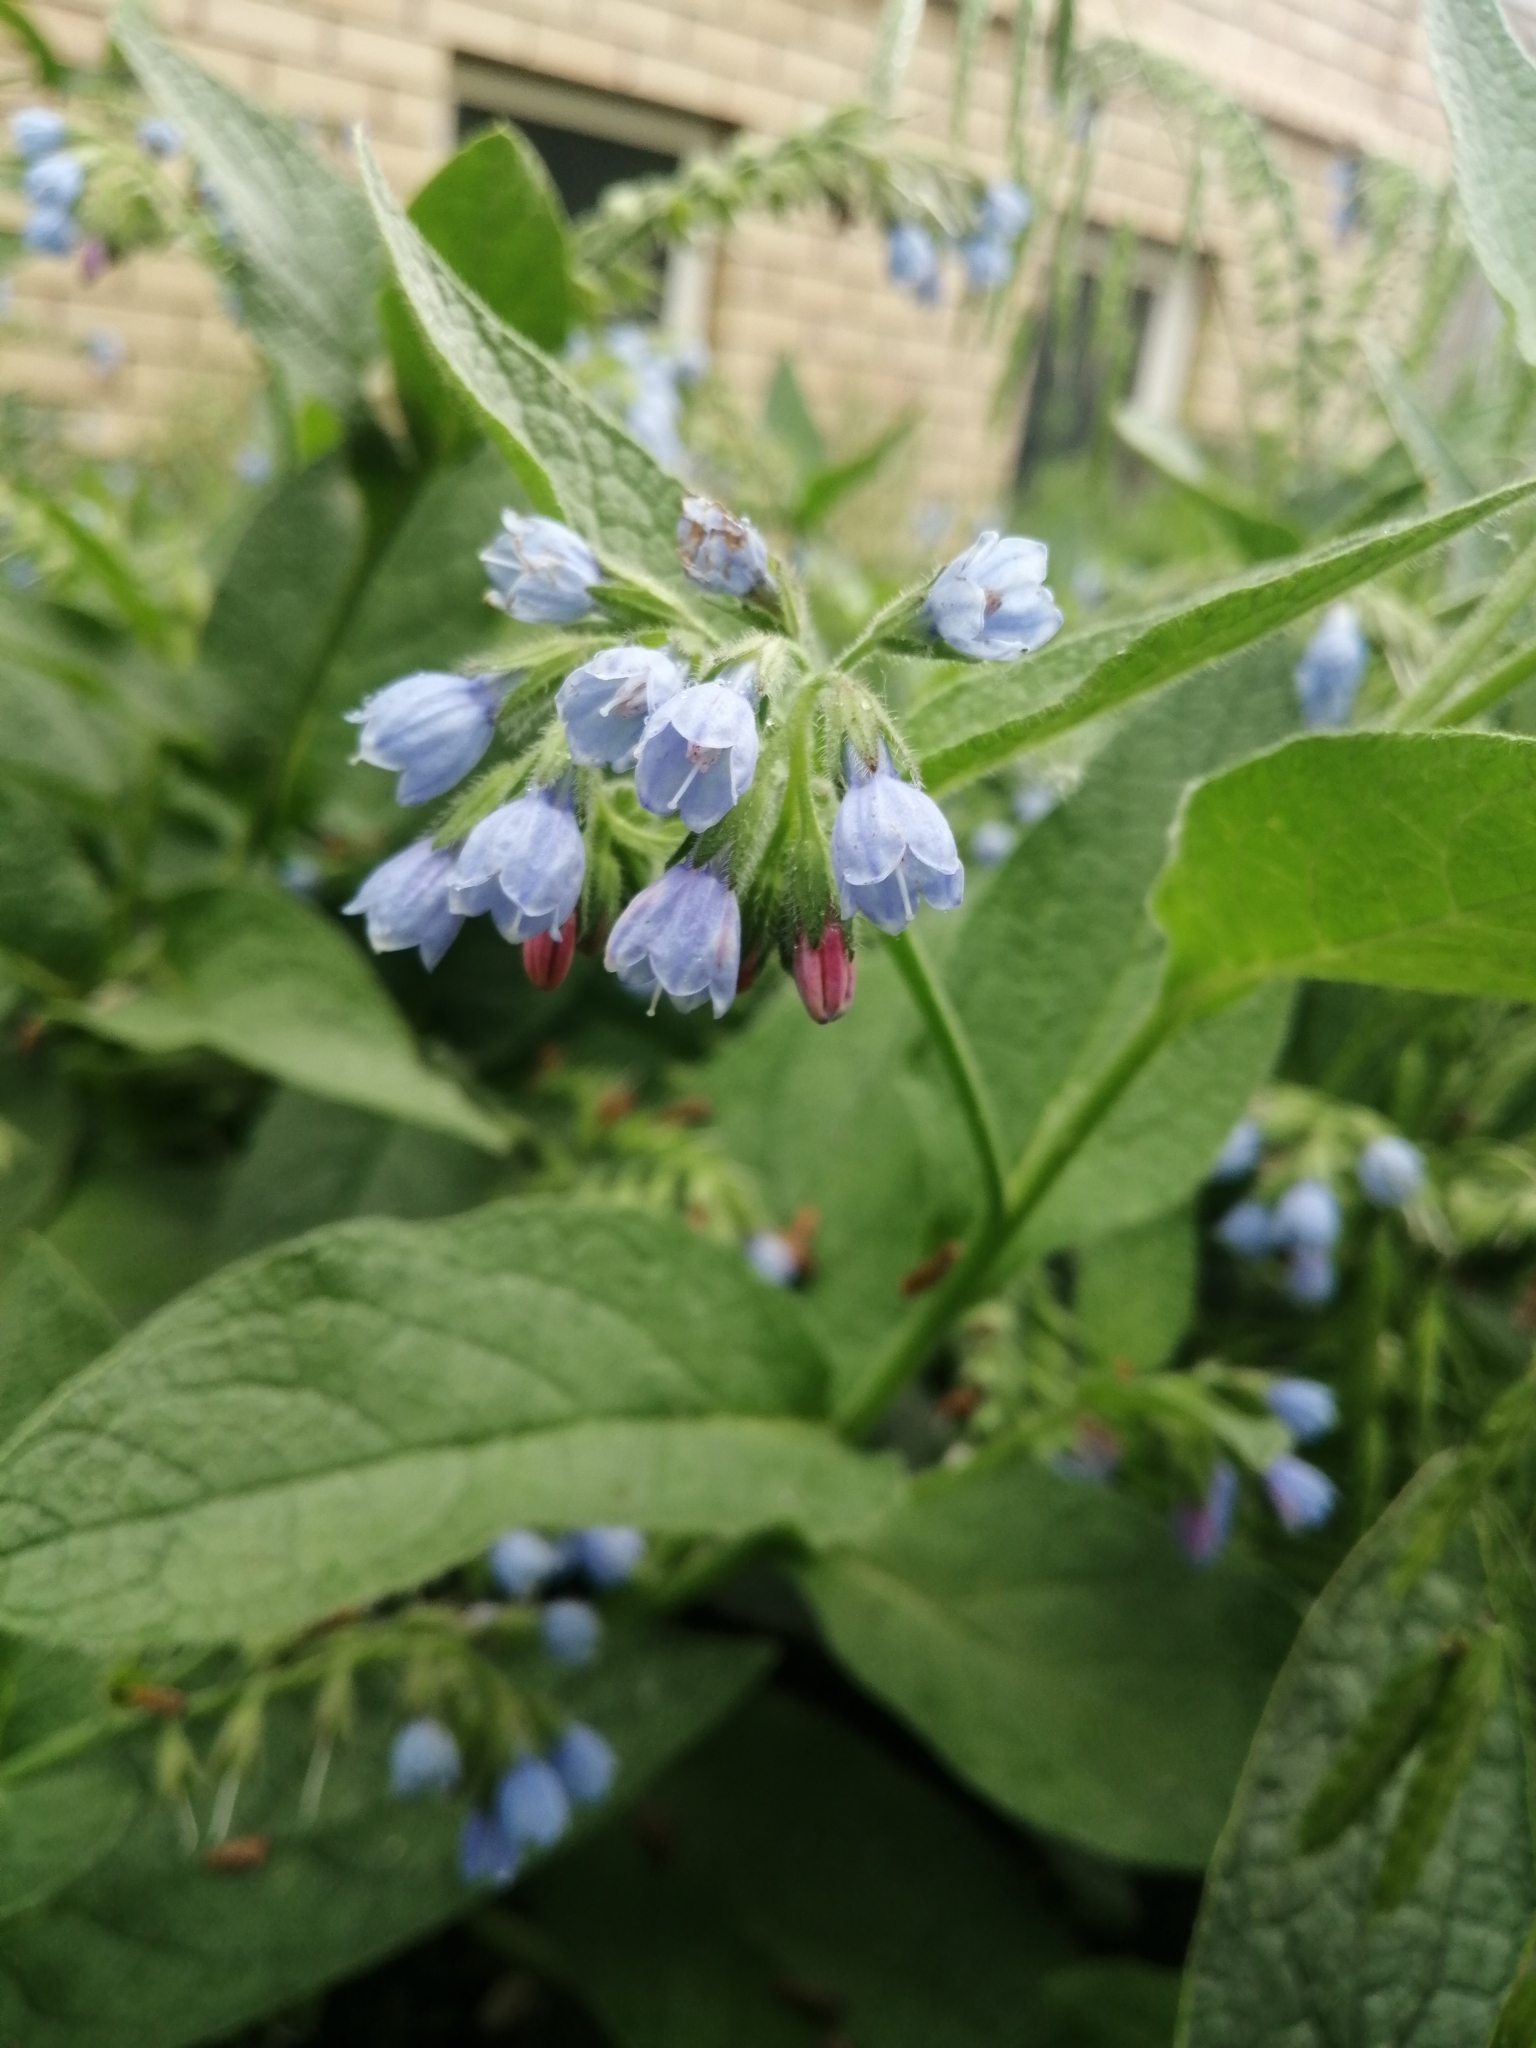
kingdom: Plantae
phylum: Tracheophyta
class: Magnoliopsida
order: Boraginales
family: Boraginaceae
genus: Symphytum
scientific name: Symphytum uplandicum
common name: Russian comfrey
